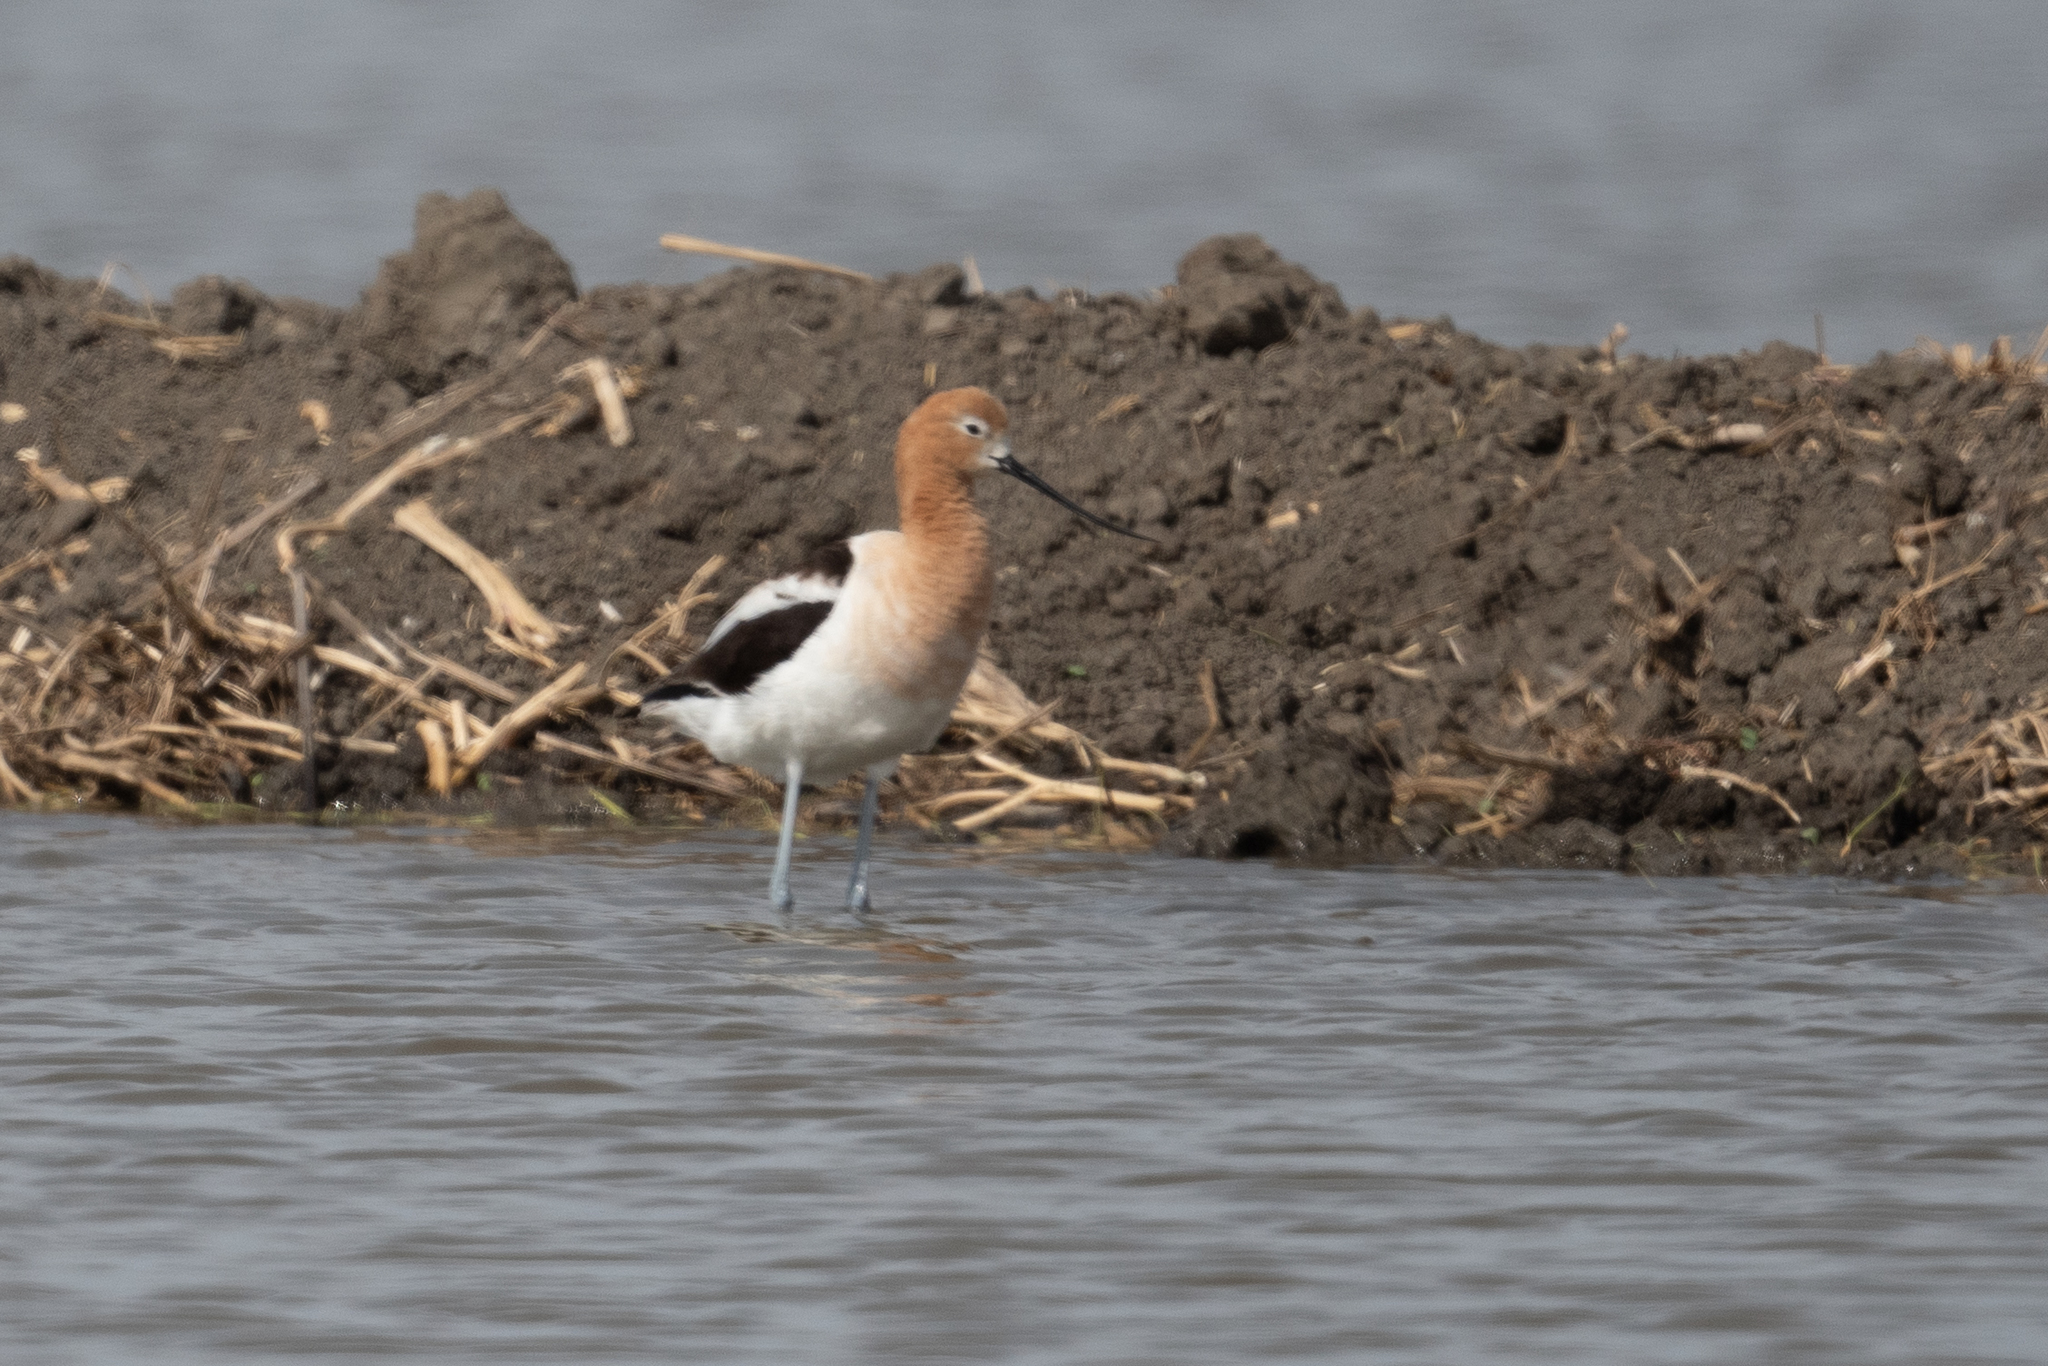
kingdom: Animalia
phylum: Chordata
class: Aves
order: Charadriiformes
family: Recurvirostridae
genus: Recurvirostra
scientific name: Recurvirostra americana
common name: American avocet
